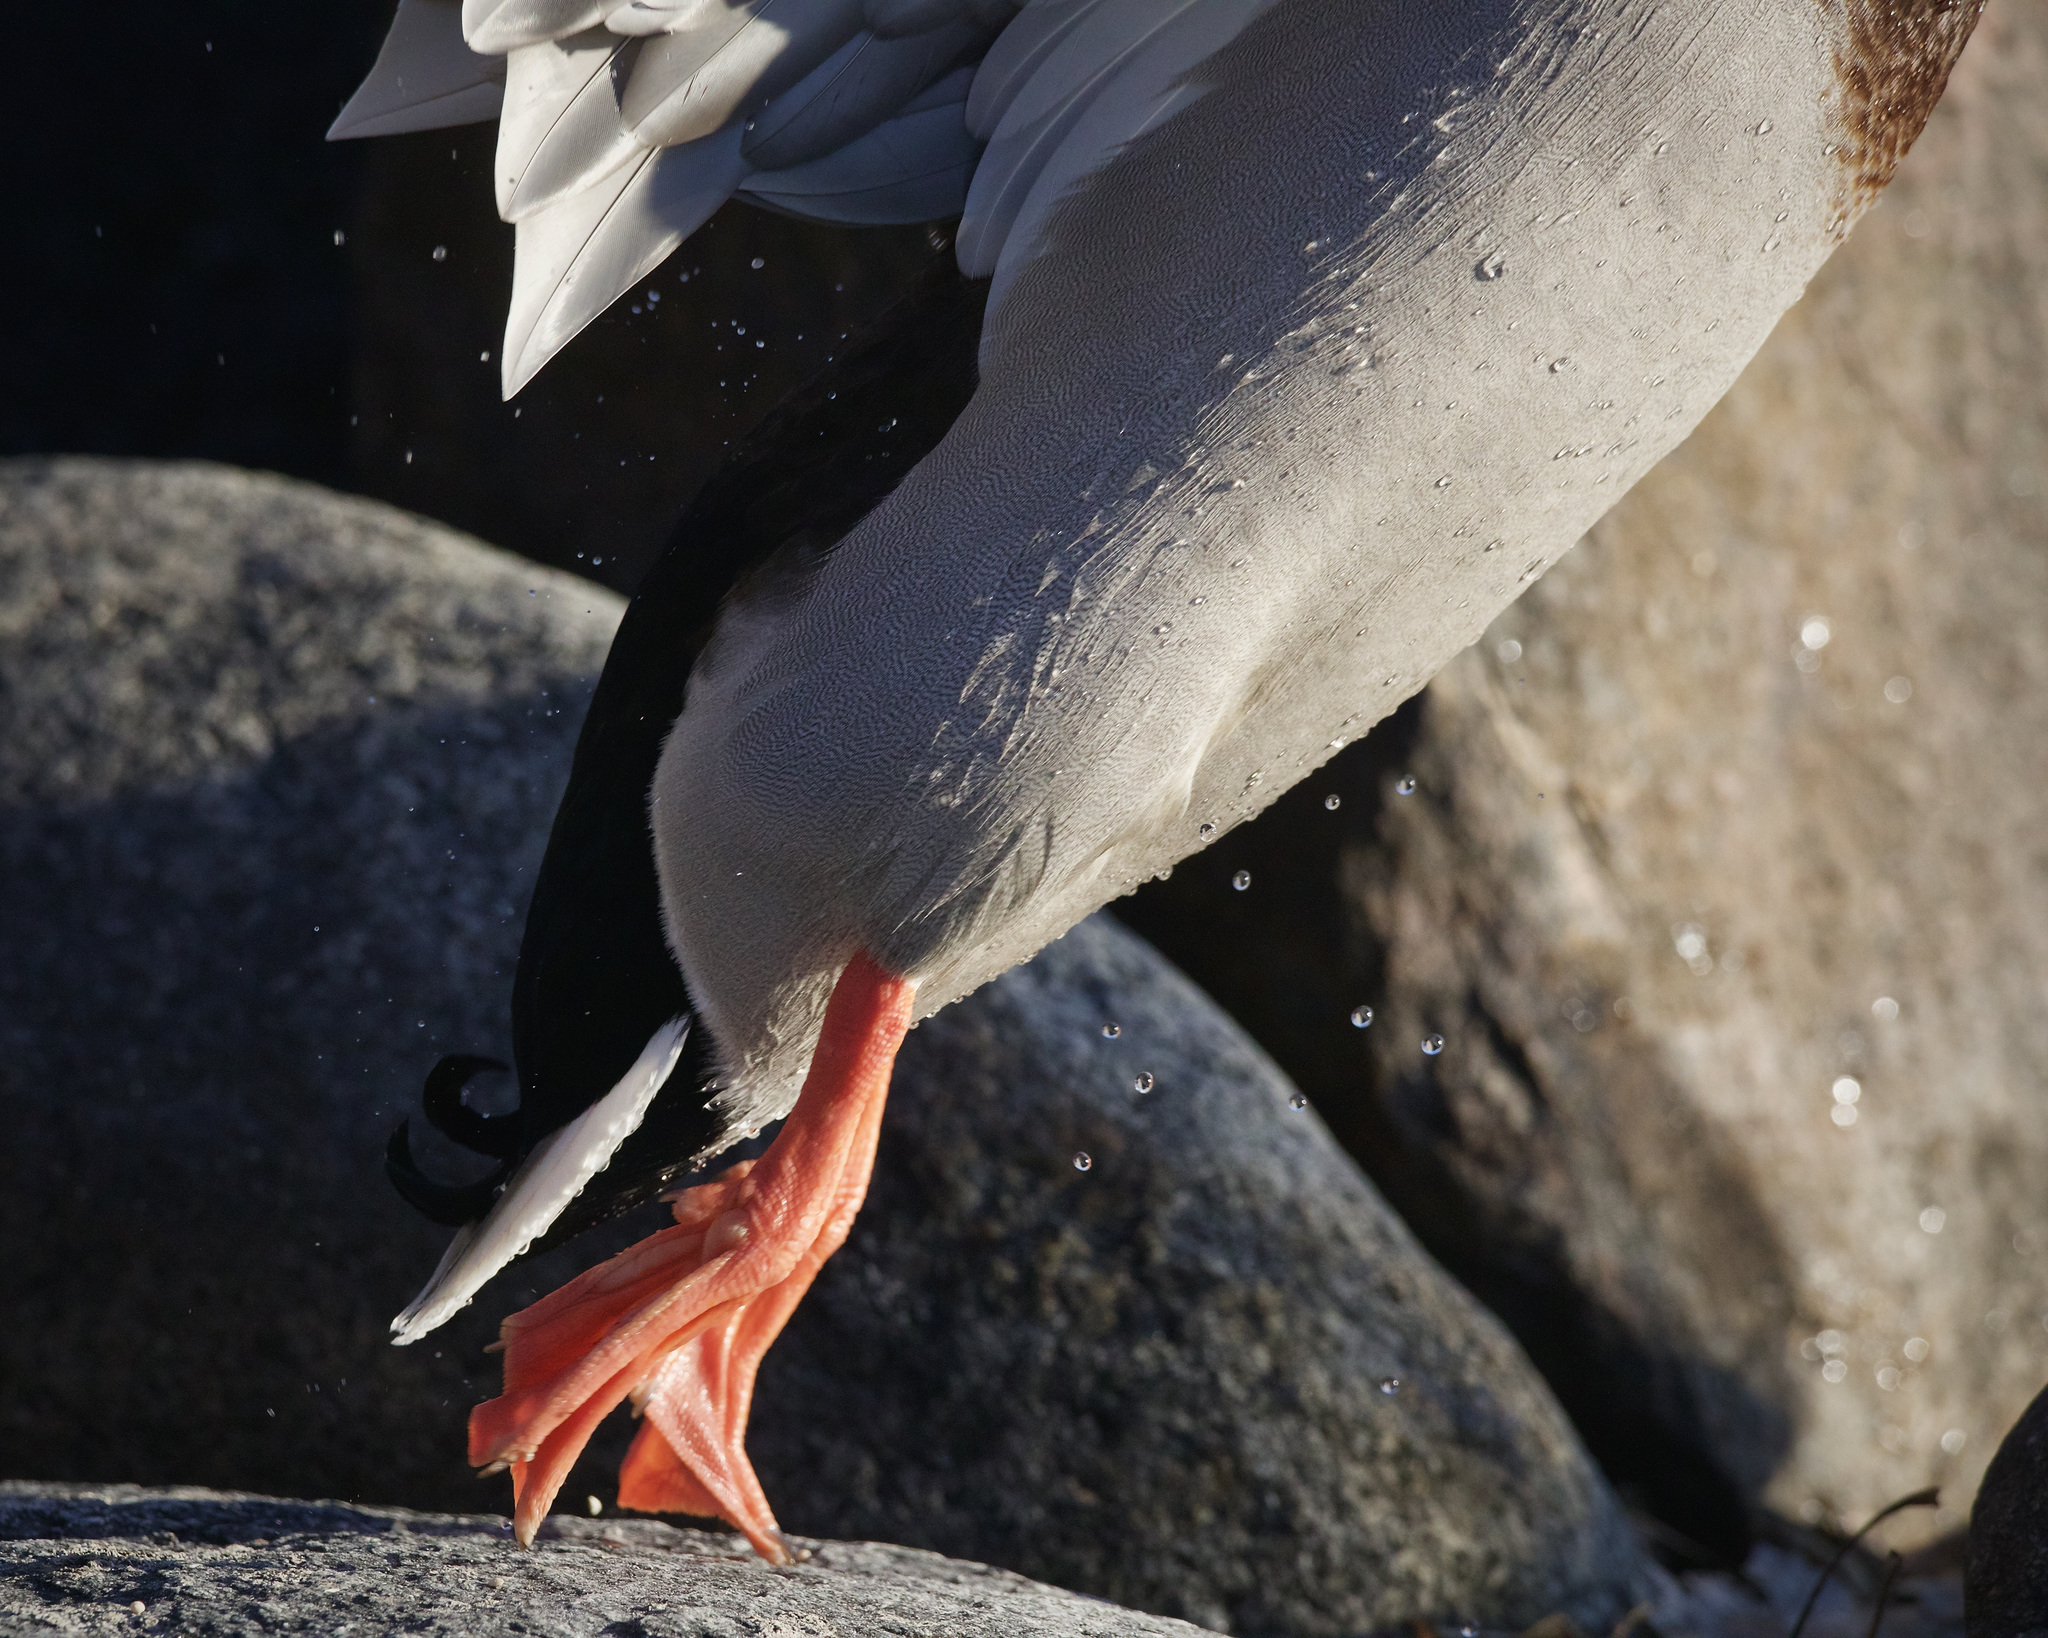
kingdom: Animalia
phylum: Chordata
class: Aves
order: Anseriformes
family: Anatidae
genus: Anas
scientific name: Anas platyrhynchos
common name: Mallard
